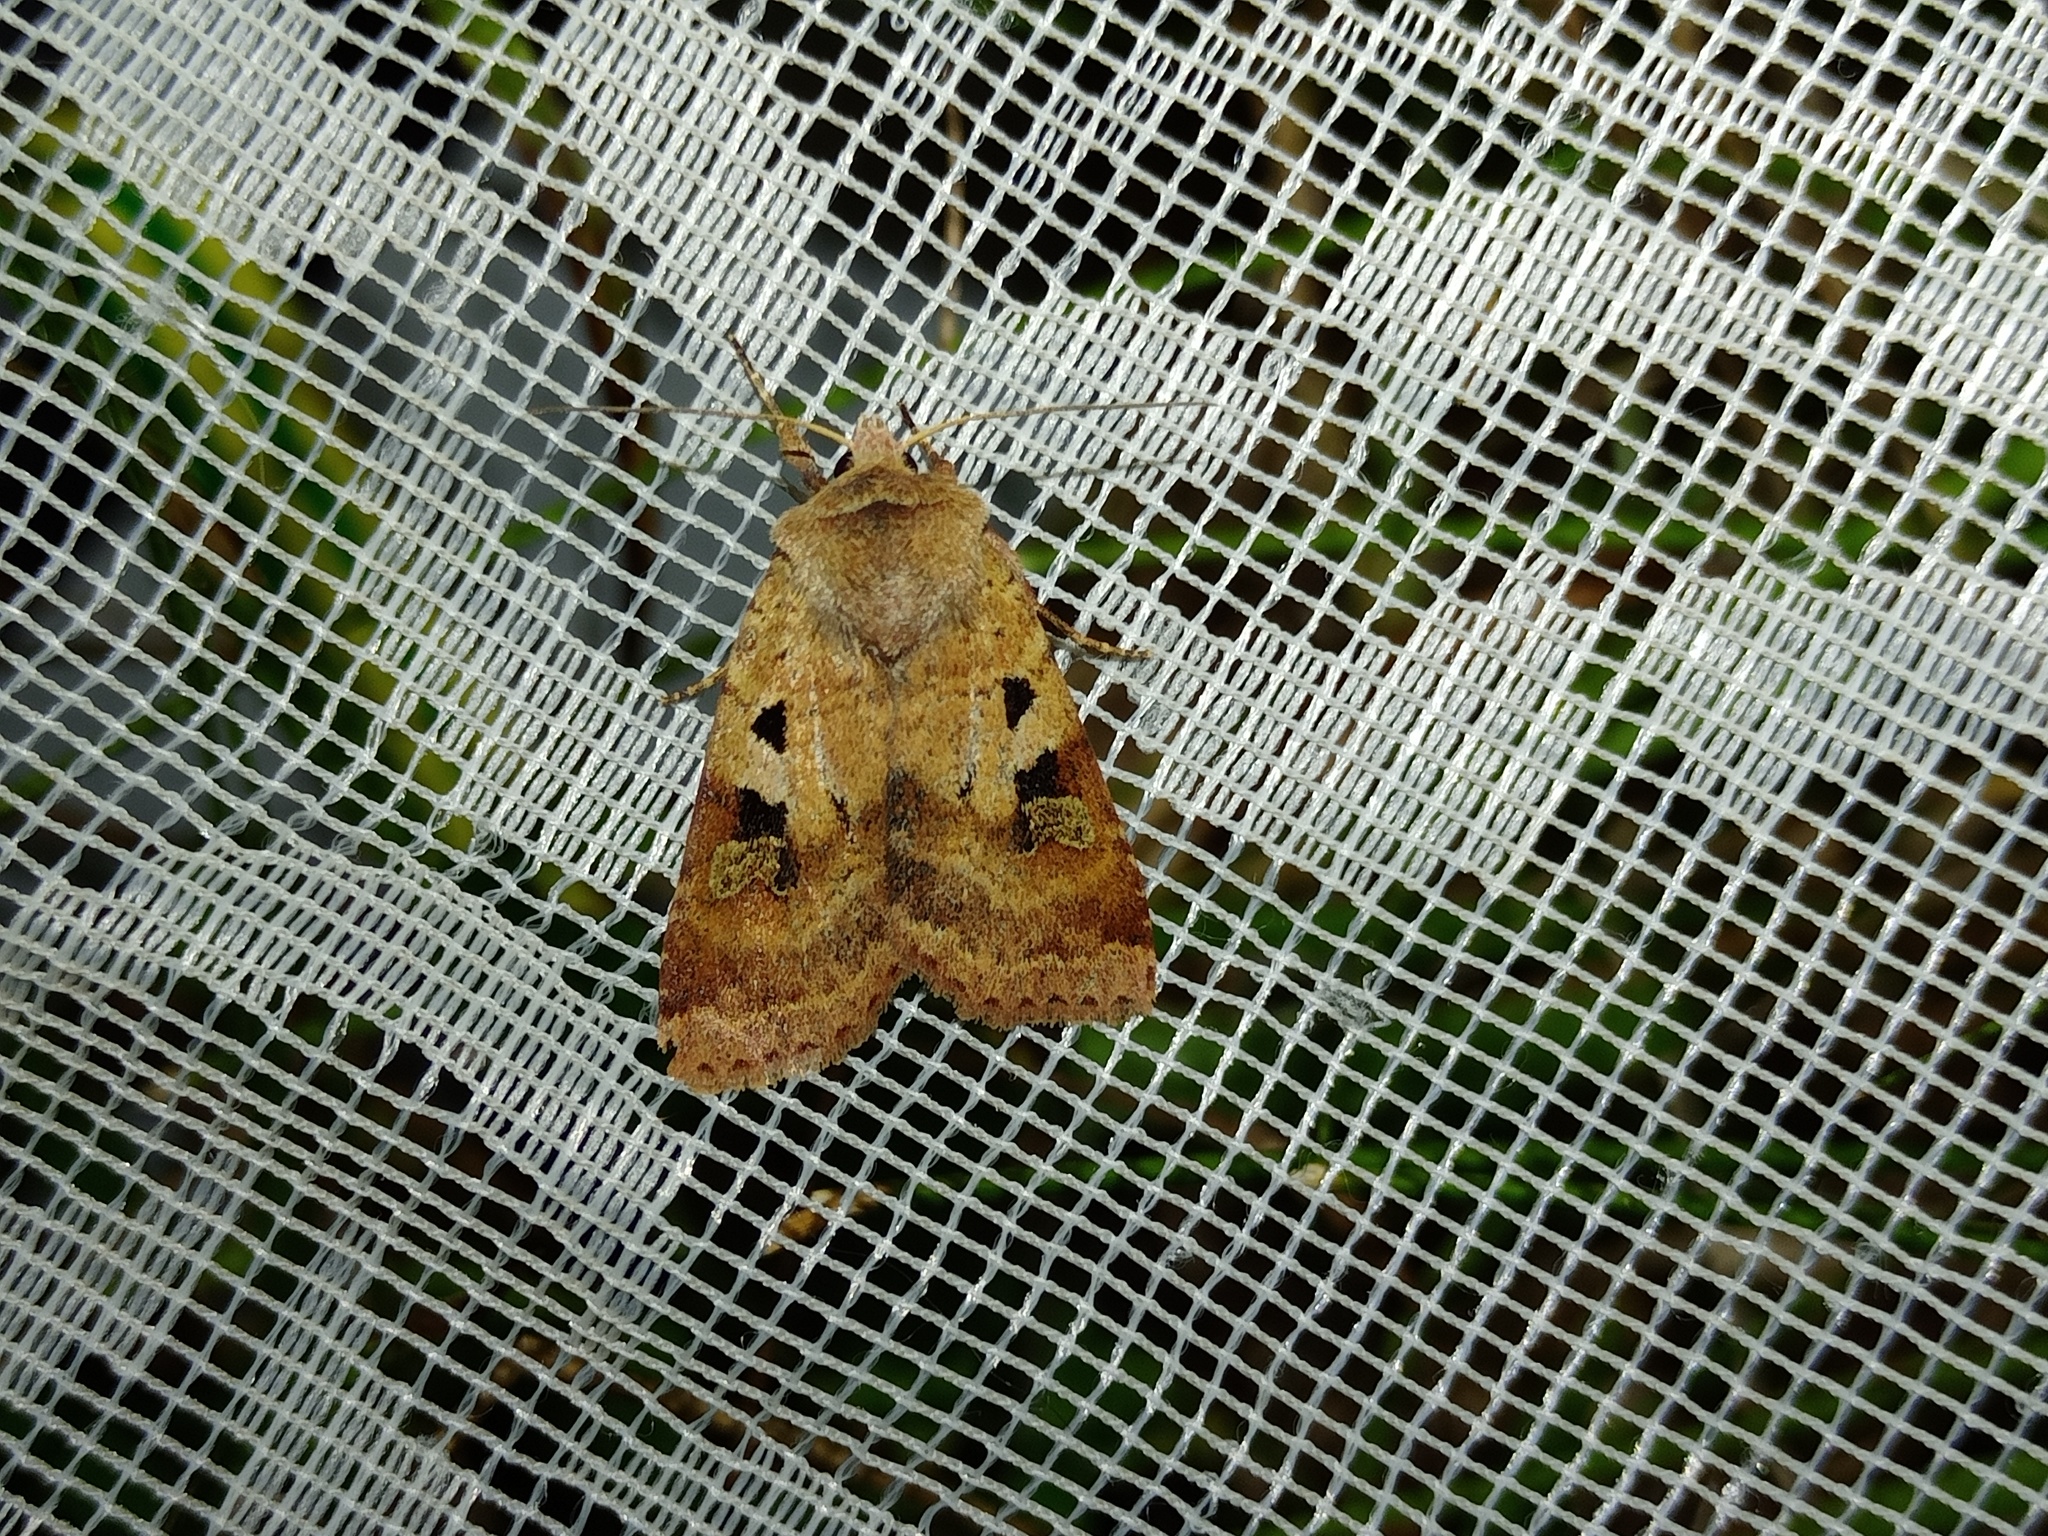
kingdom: Animalia
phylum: Arthropoda
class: Insecta
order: Lepidoptera
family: Noctuidae
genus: Diarsia
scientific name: Diarsia mendica
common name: Ingrailed clay
